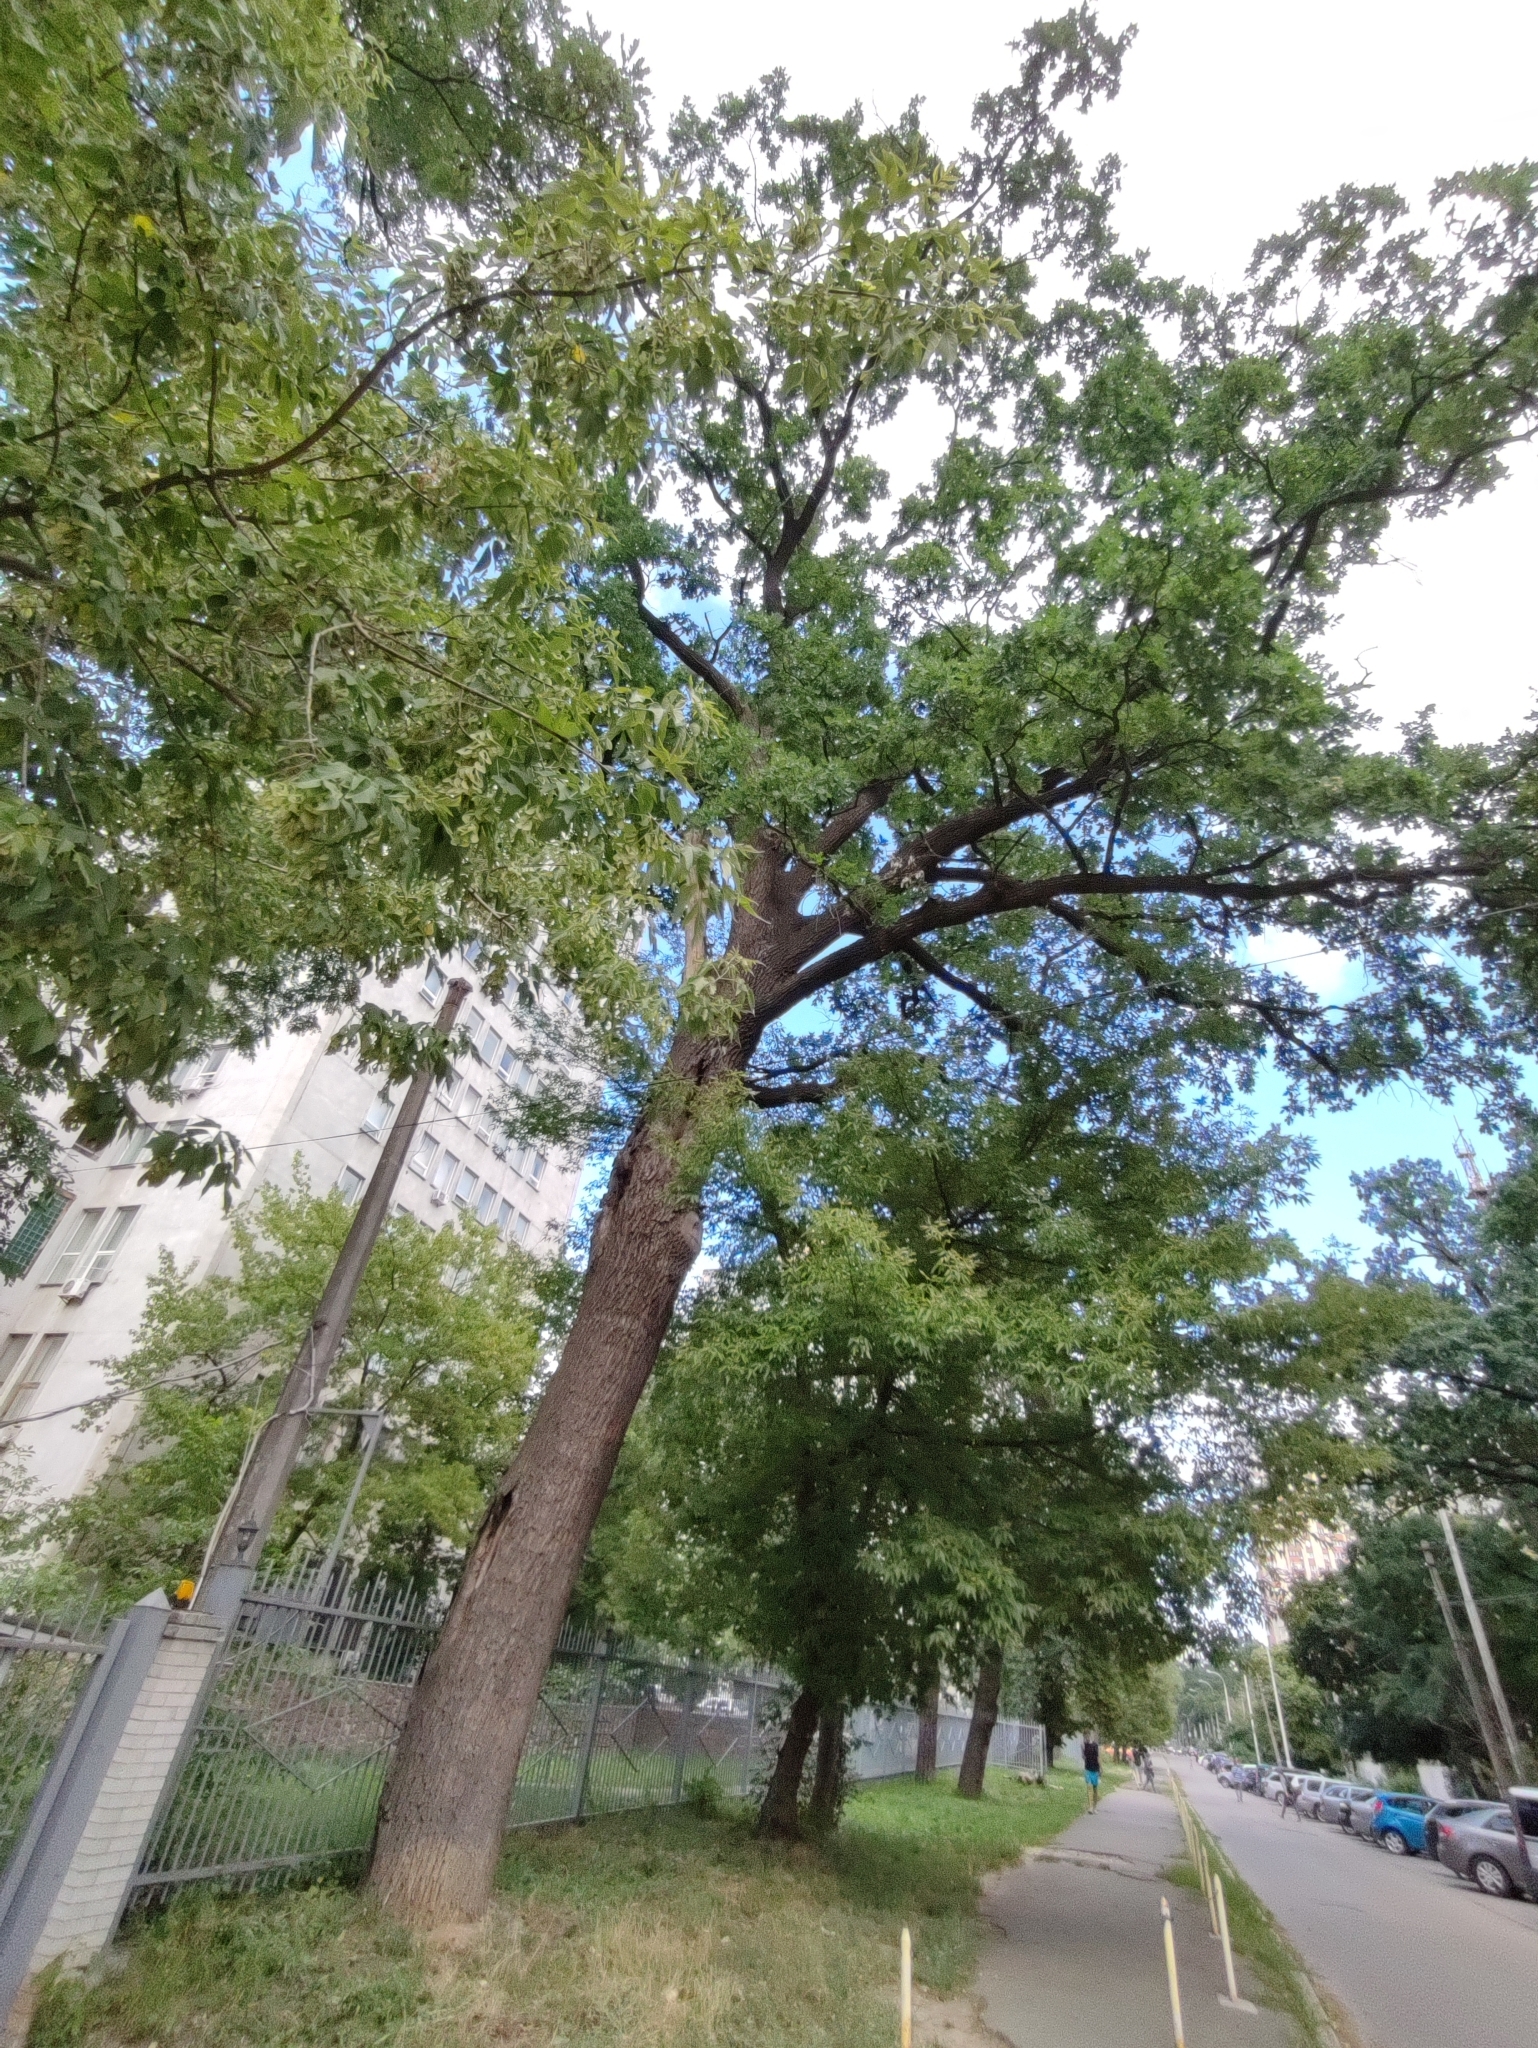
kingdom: Plantae
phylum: Tracheophyta
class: Magnoliopsida
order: Fagales
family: Fagaceae
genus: Quercus
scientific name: Quercus robur
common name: Pedunculate oak
